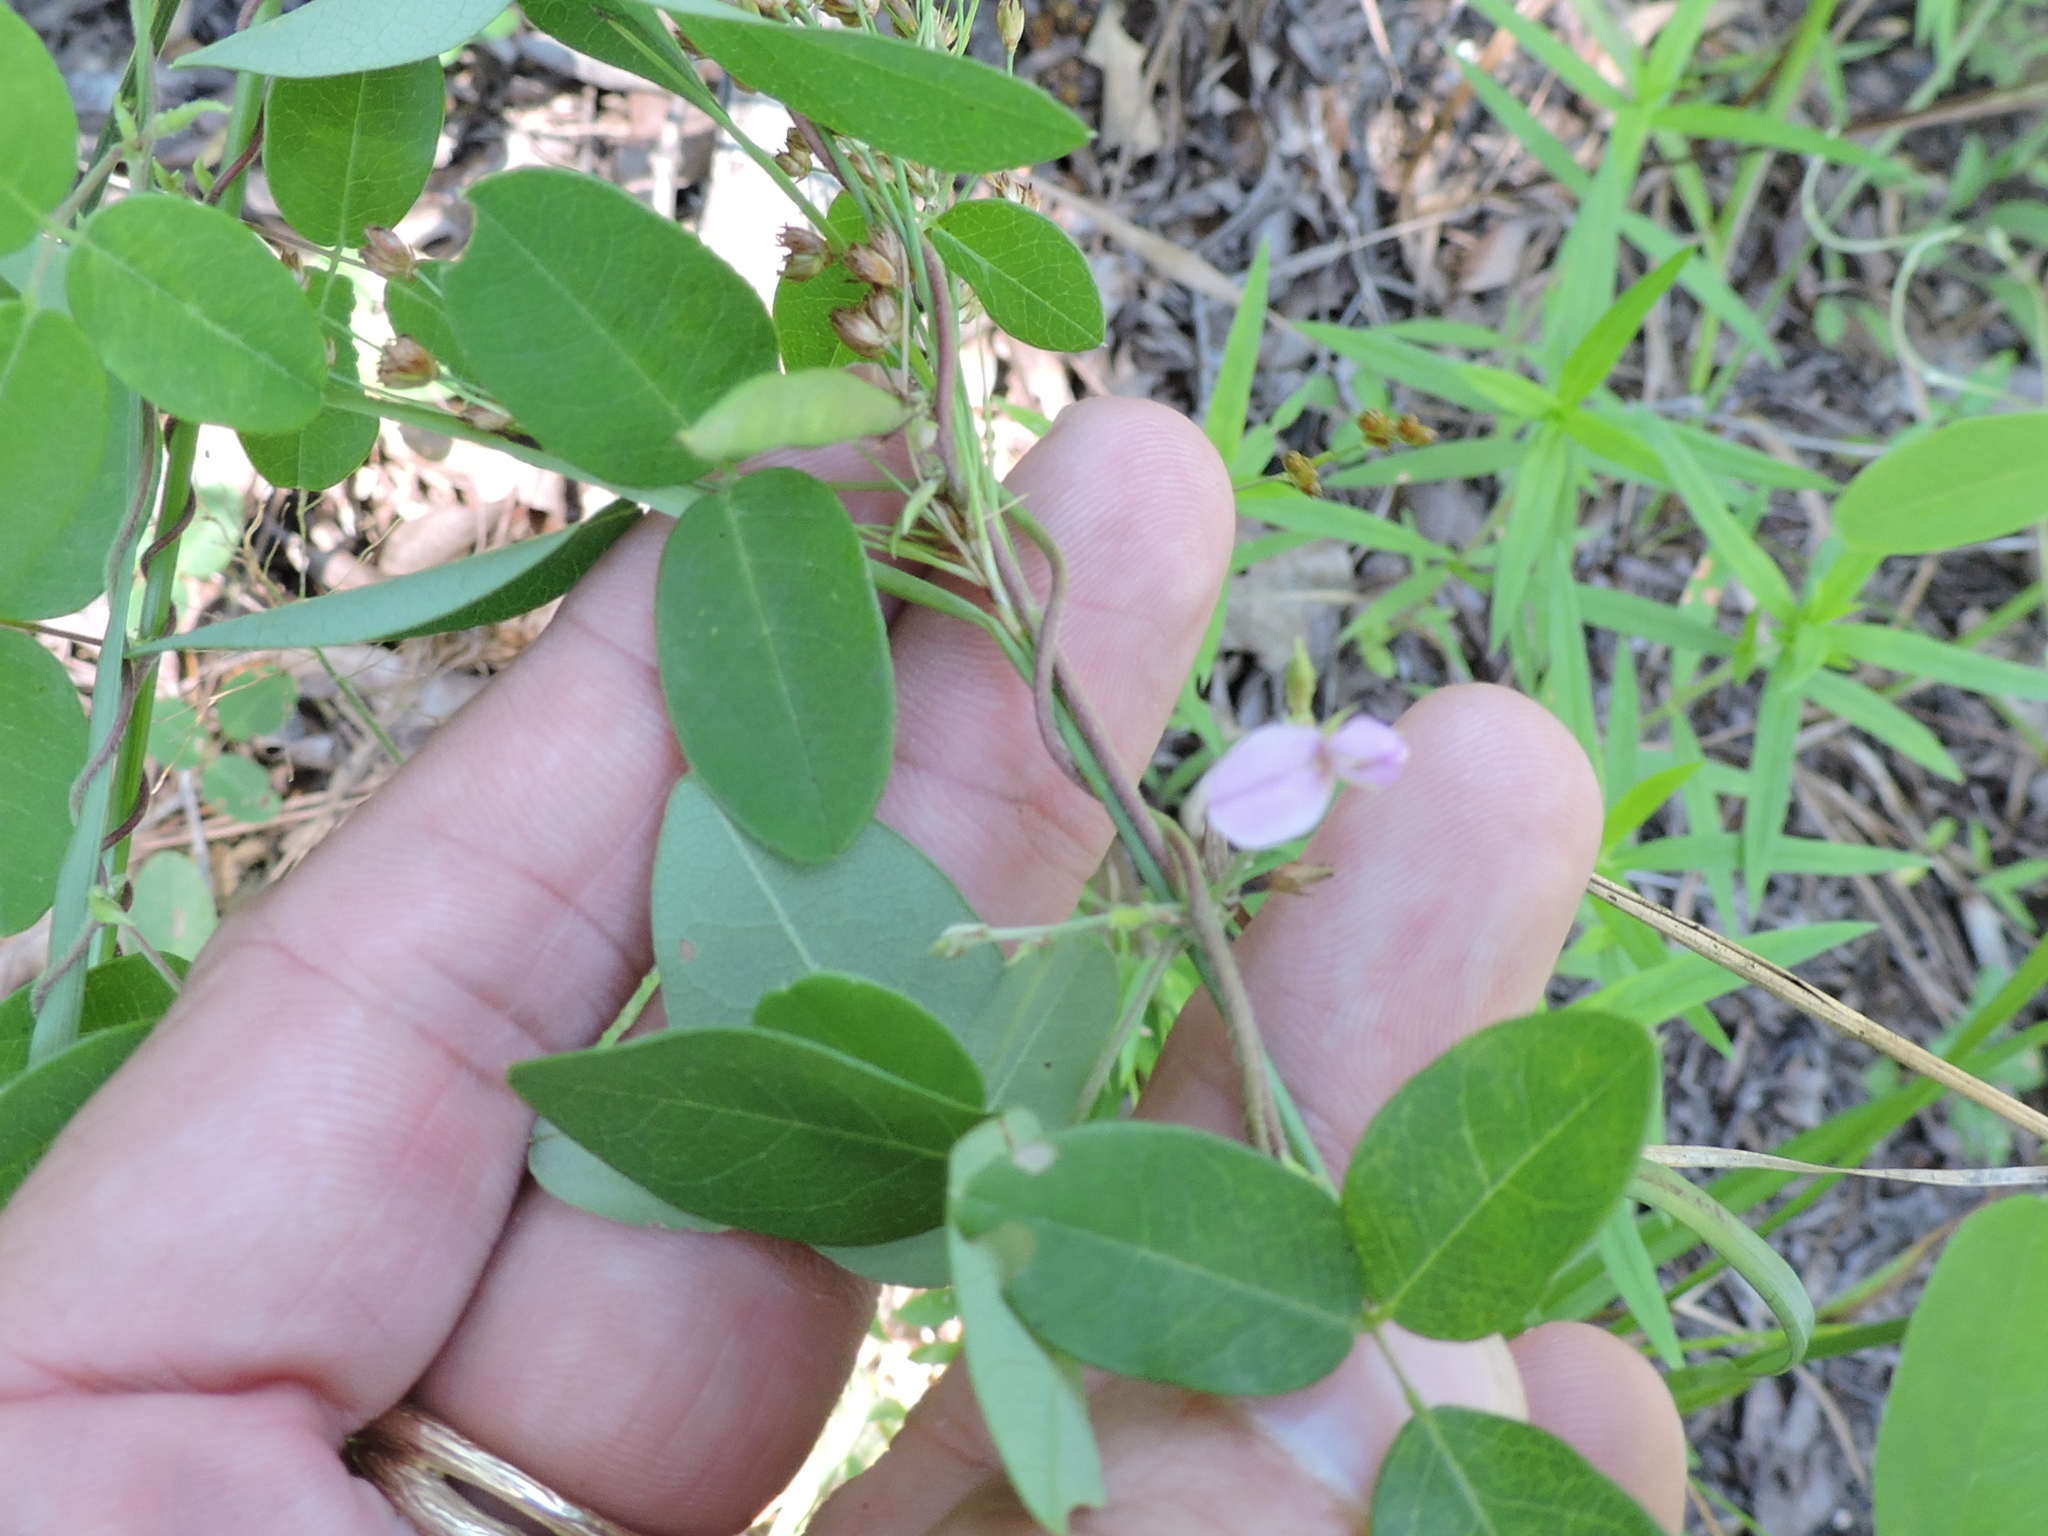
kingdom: Plantae
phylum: Tracheophyta
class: Magnoliopsida
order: Fabales
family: Fabaceae
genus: Galactia
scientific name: Galactia volubilis
